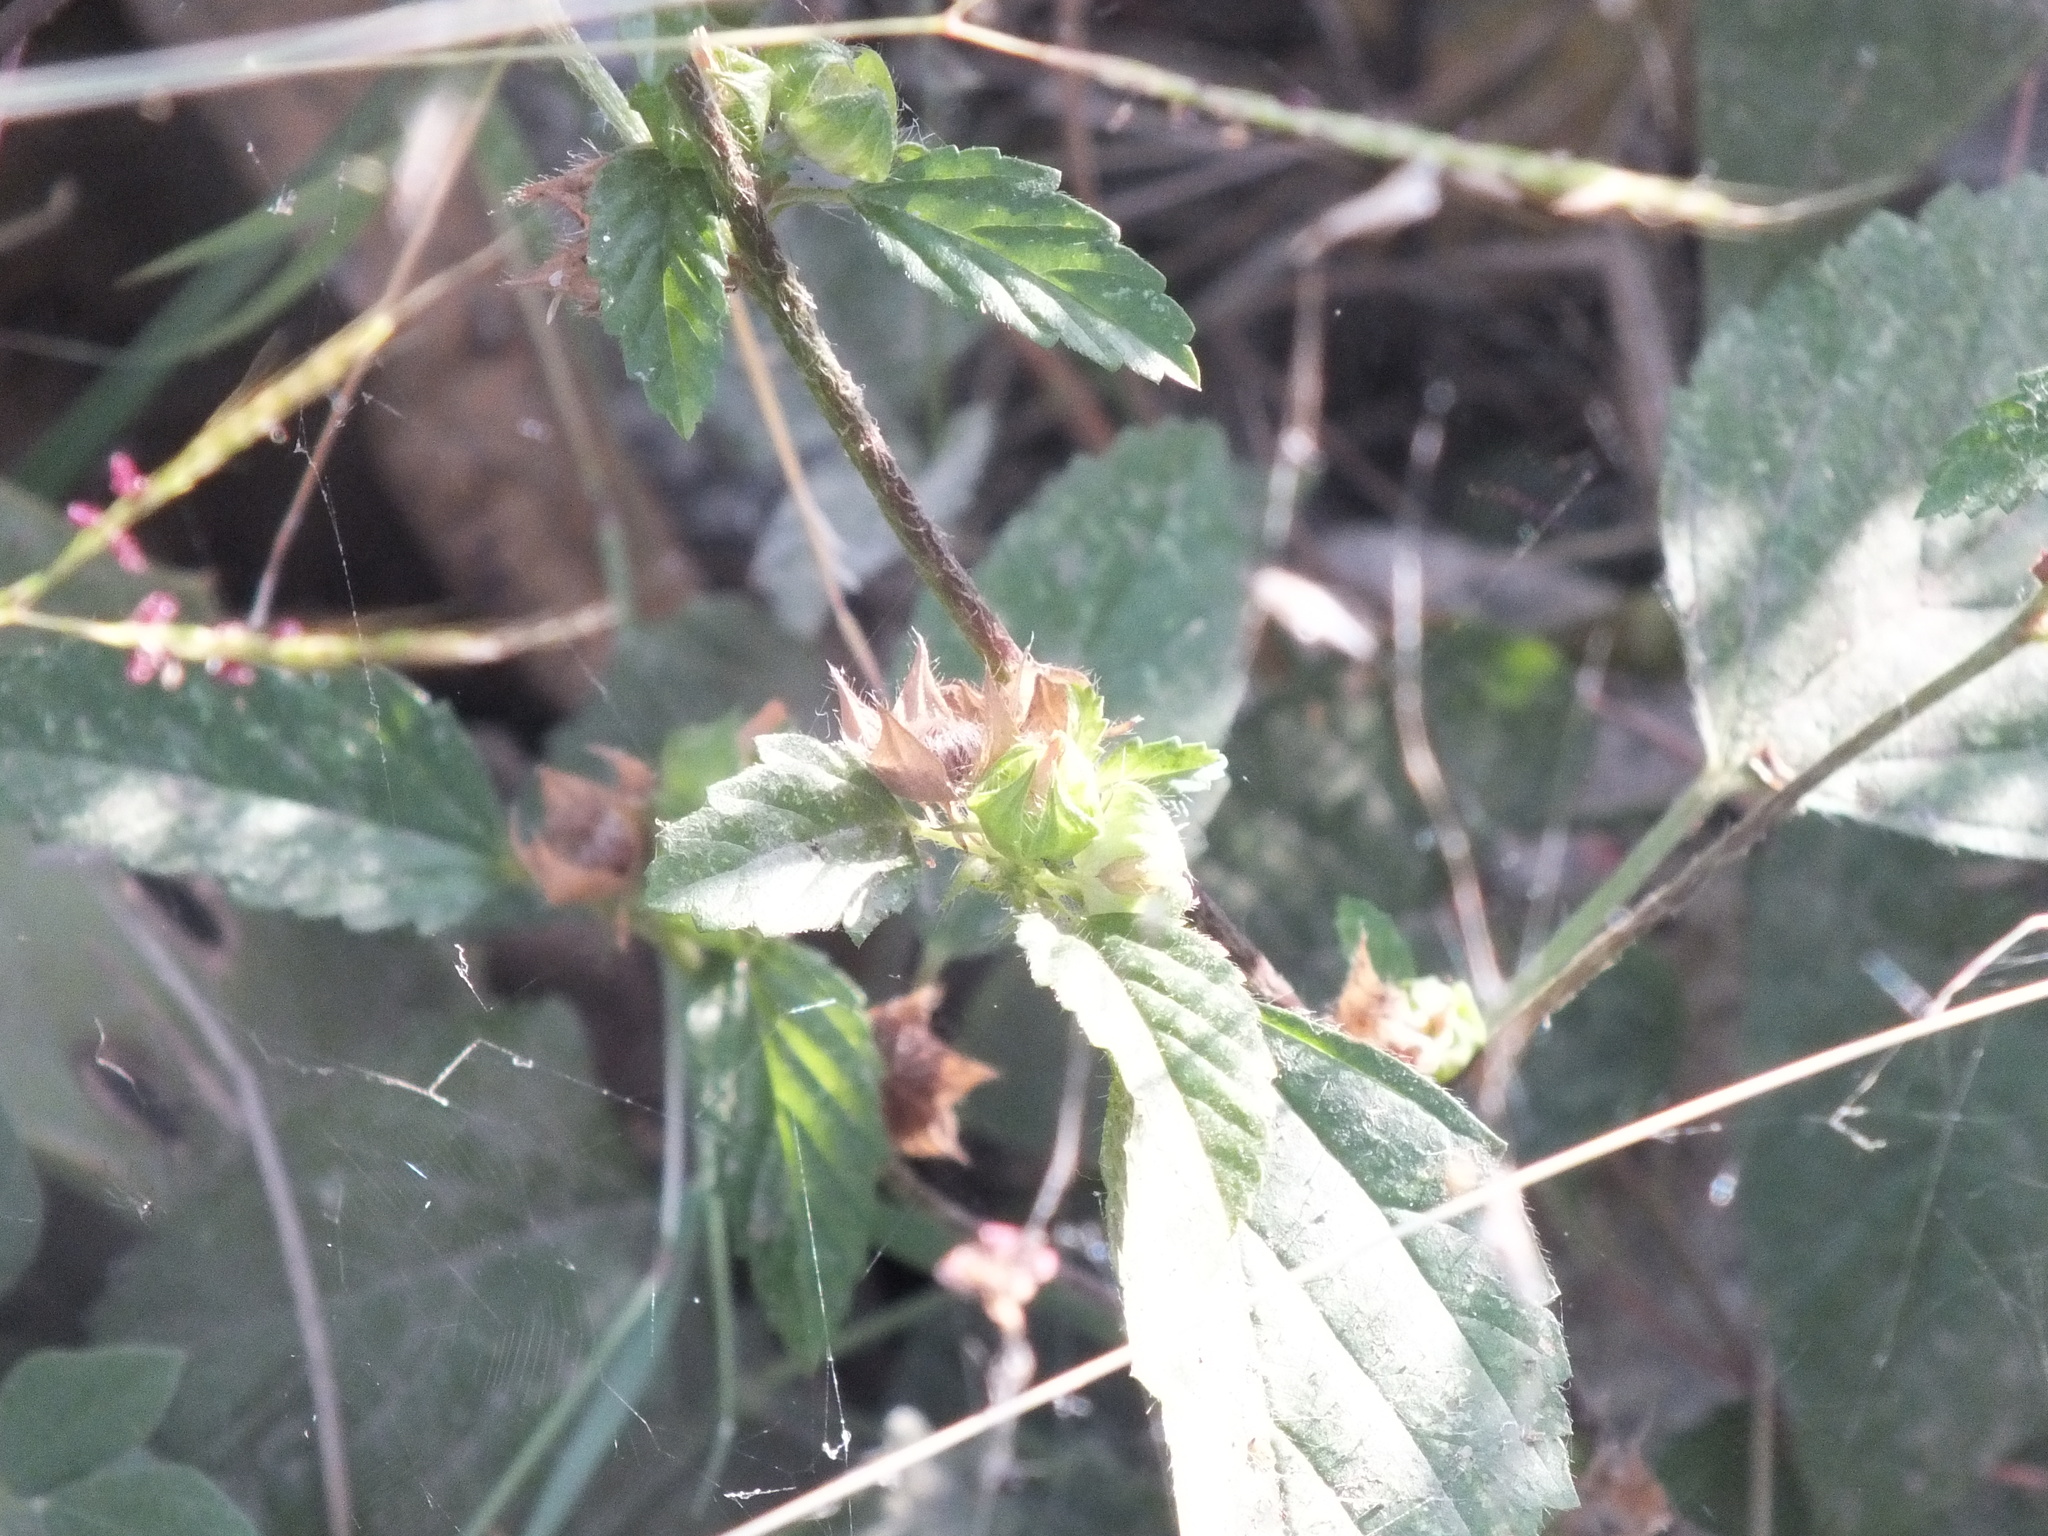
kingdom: Plantae
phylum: Tracheophyta
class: Magnoliopsida
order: Malvales
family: Malvaceae
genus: Malvastrum
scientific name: Malvastrum coromandelianum
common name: Threelobe false mallow
